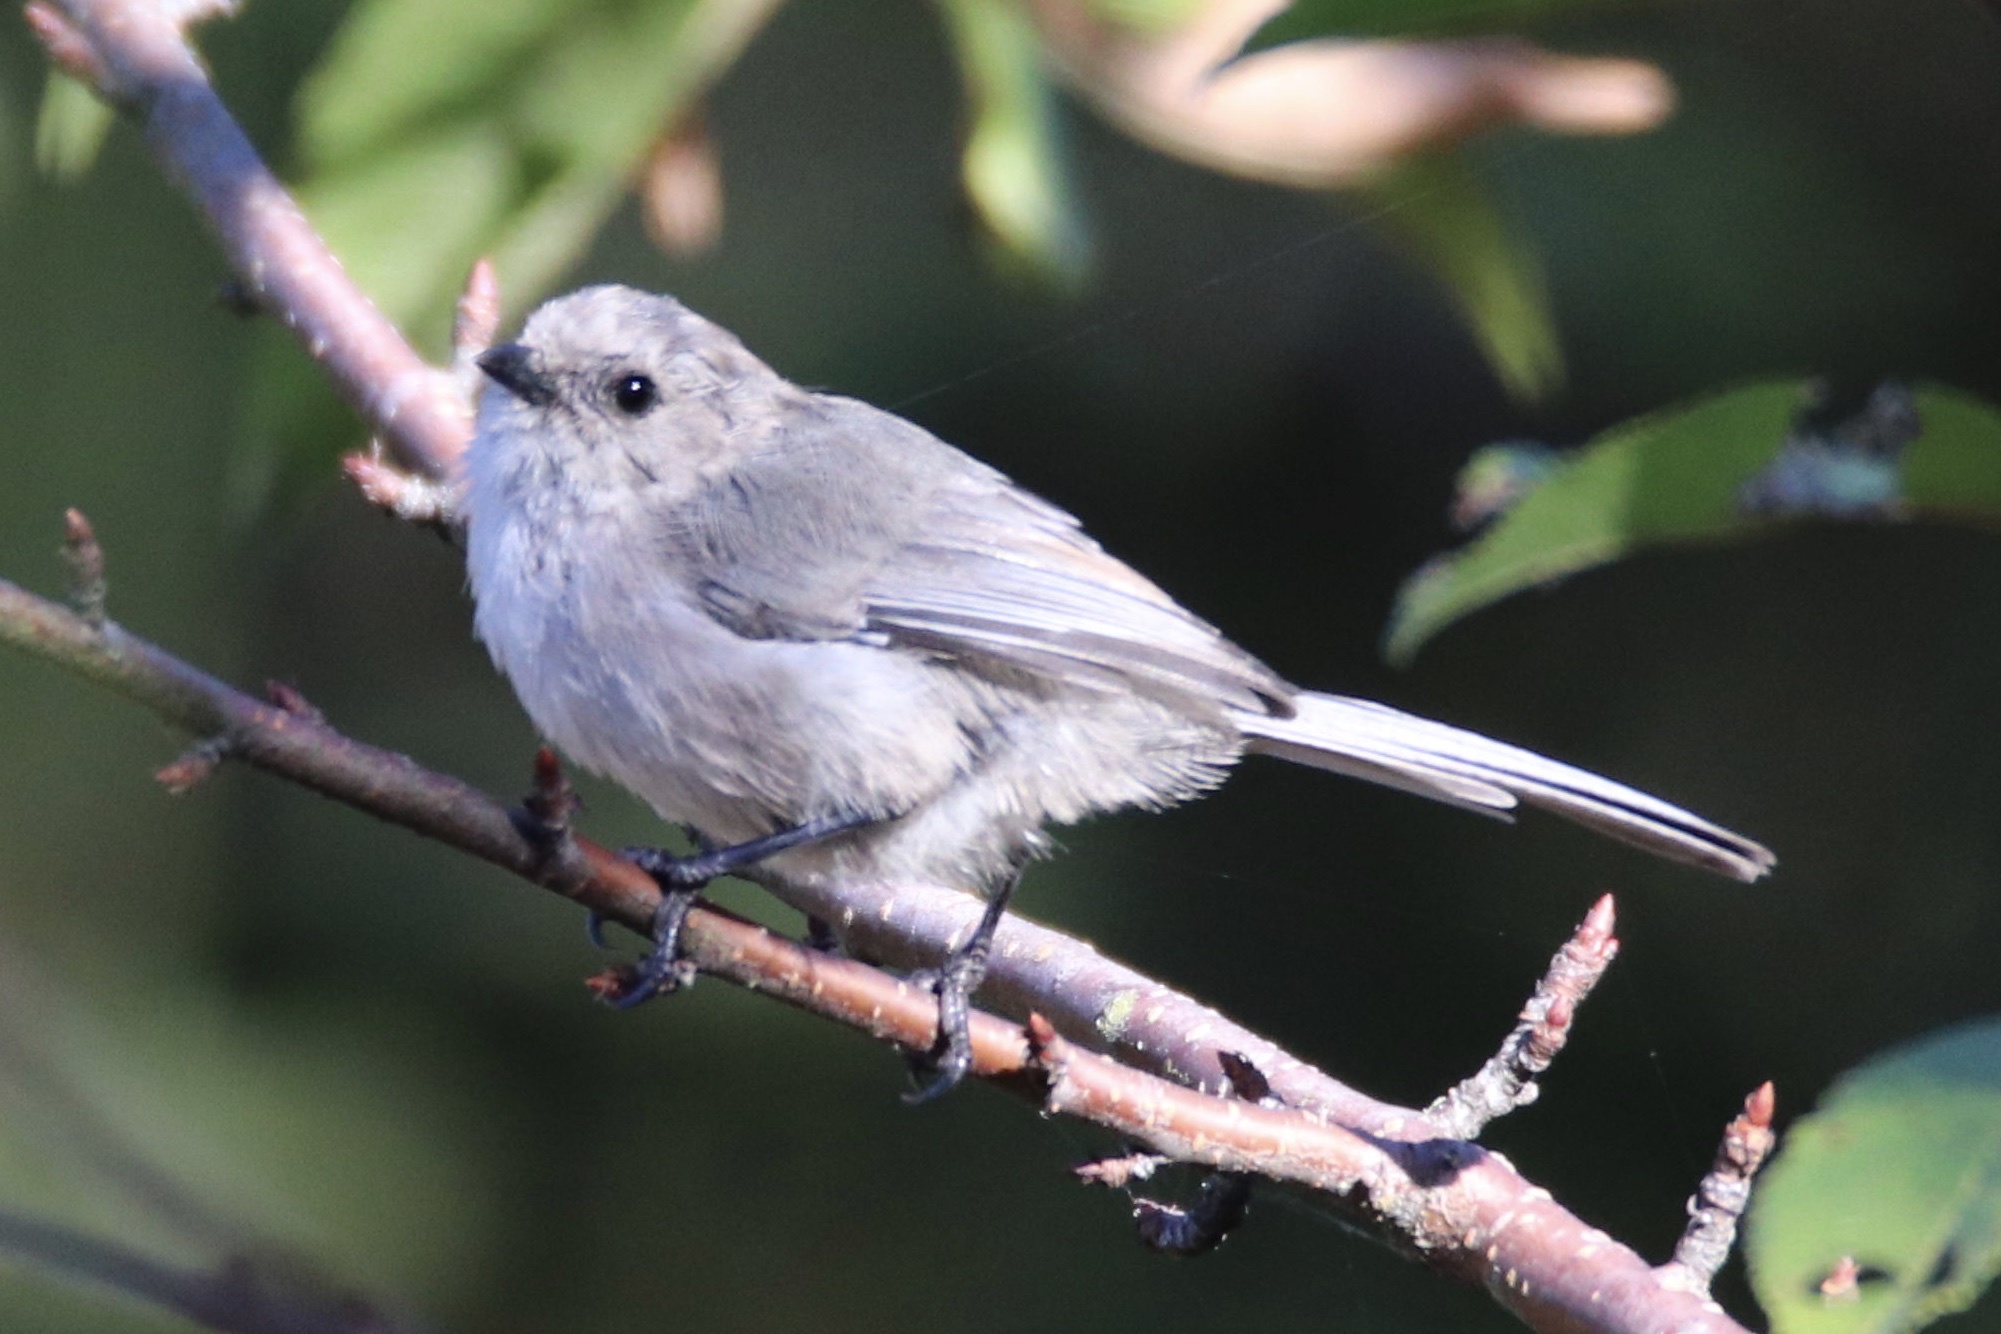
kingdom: Animalia
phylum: Chordata
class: Aves
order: Passeriformes
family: Aegithalidae
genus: Psaltriparus
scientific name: Psaltriparus minimus
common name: American bushtit
